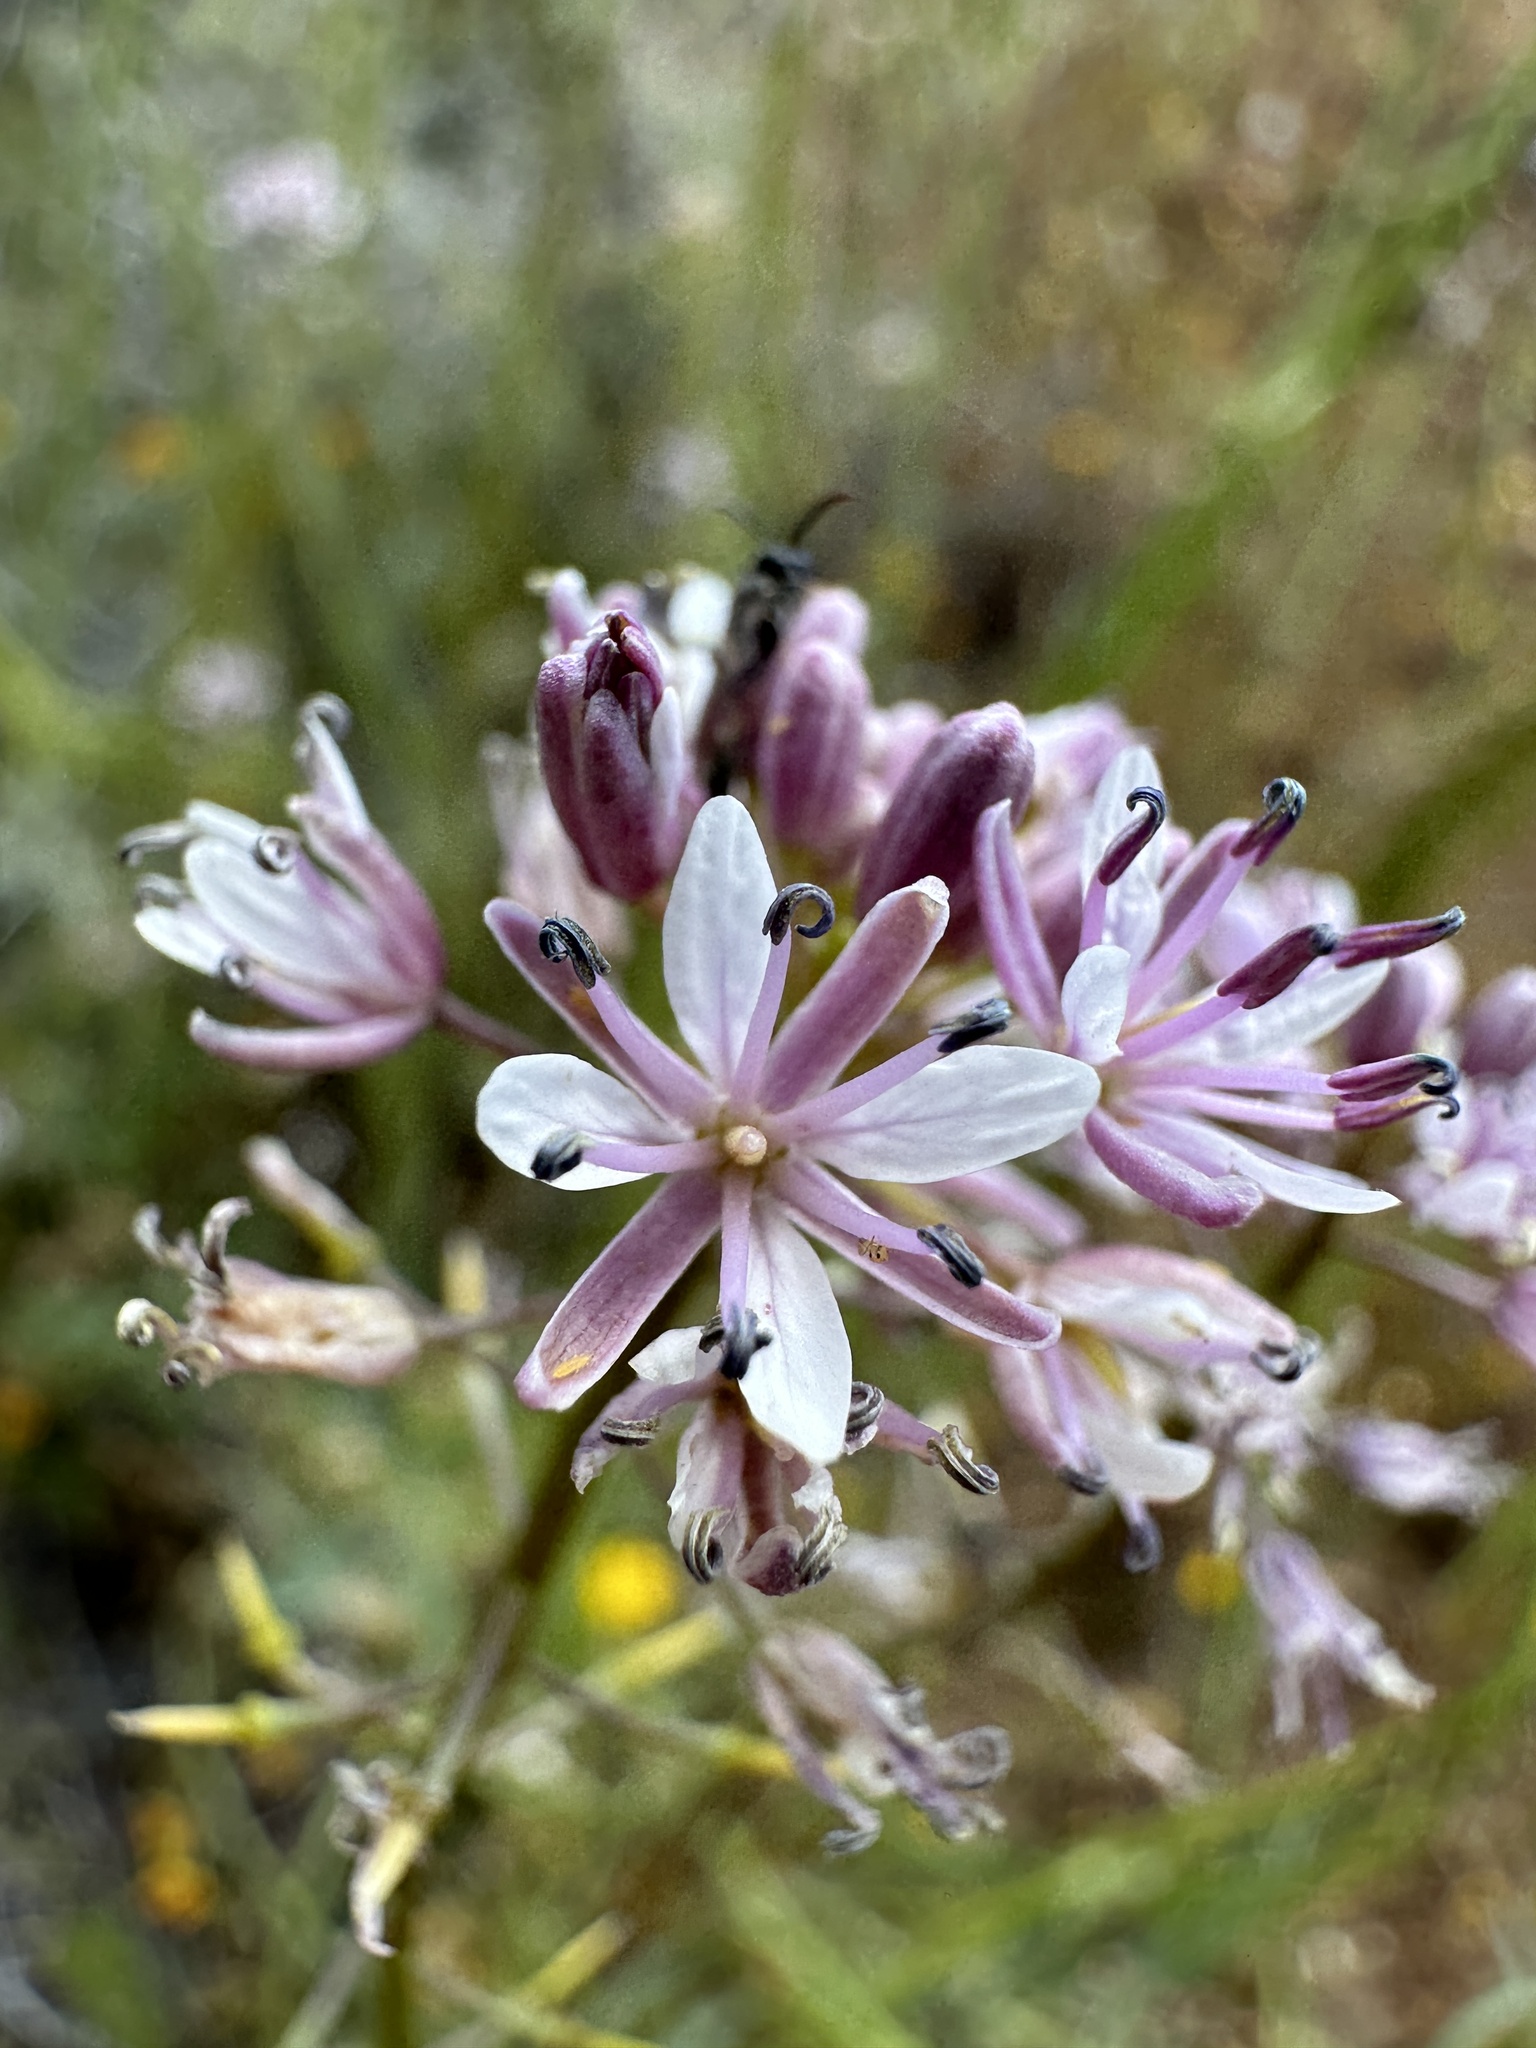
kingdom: Plantae
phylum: Tracheophyta
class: Magnoliopsida
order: Brassicales
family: Brassicaceae
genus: Streptanthus
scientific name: Streptanthus anceps
